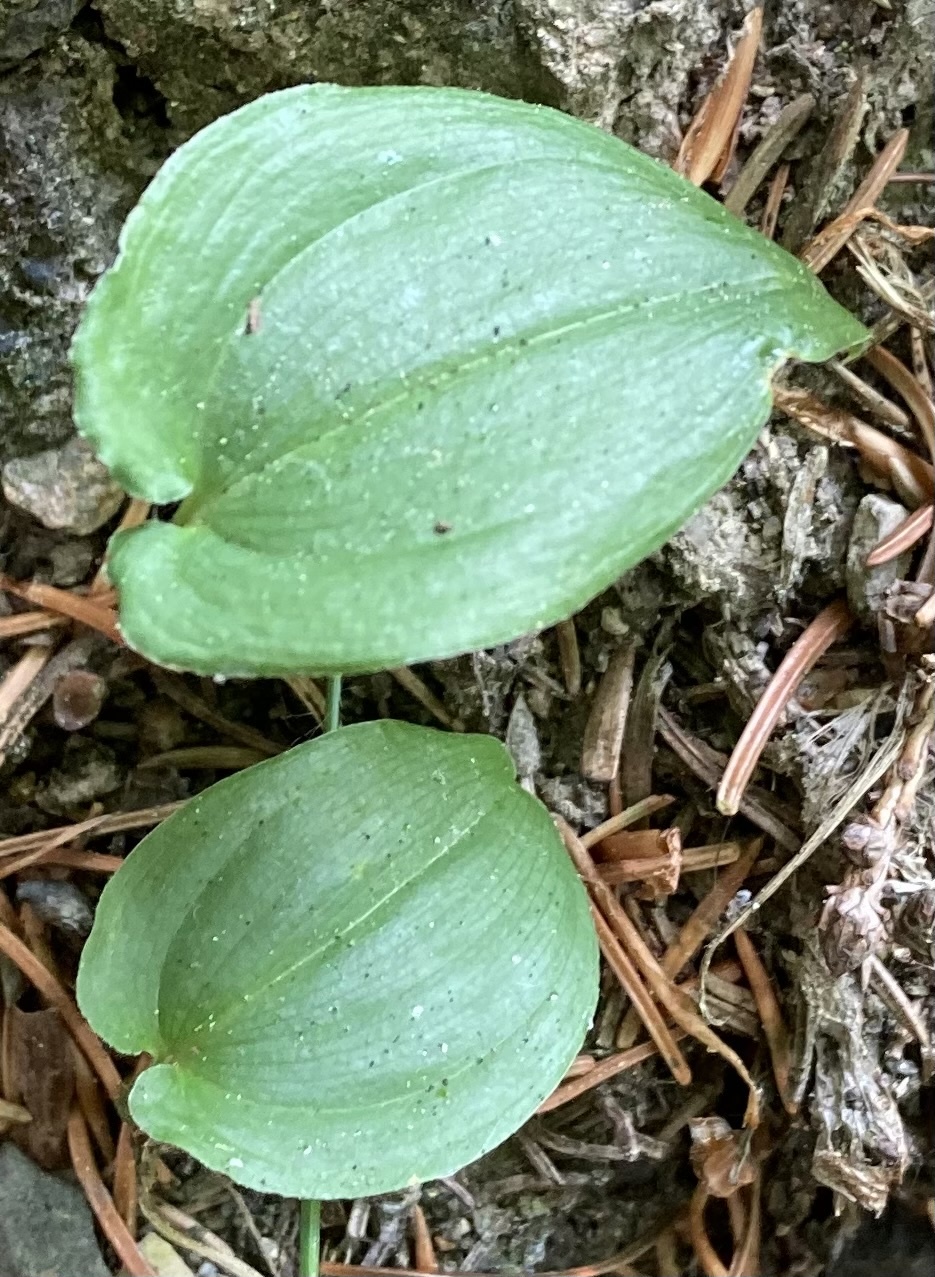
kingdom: Plantae
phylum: Tracheophyta
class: Liliopsida
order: Asparagales
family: Asparagaceae
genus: Maianthemum
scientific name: Maianthemum bifolium
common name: May lily
